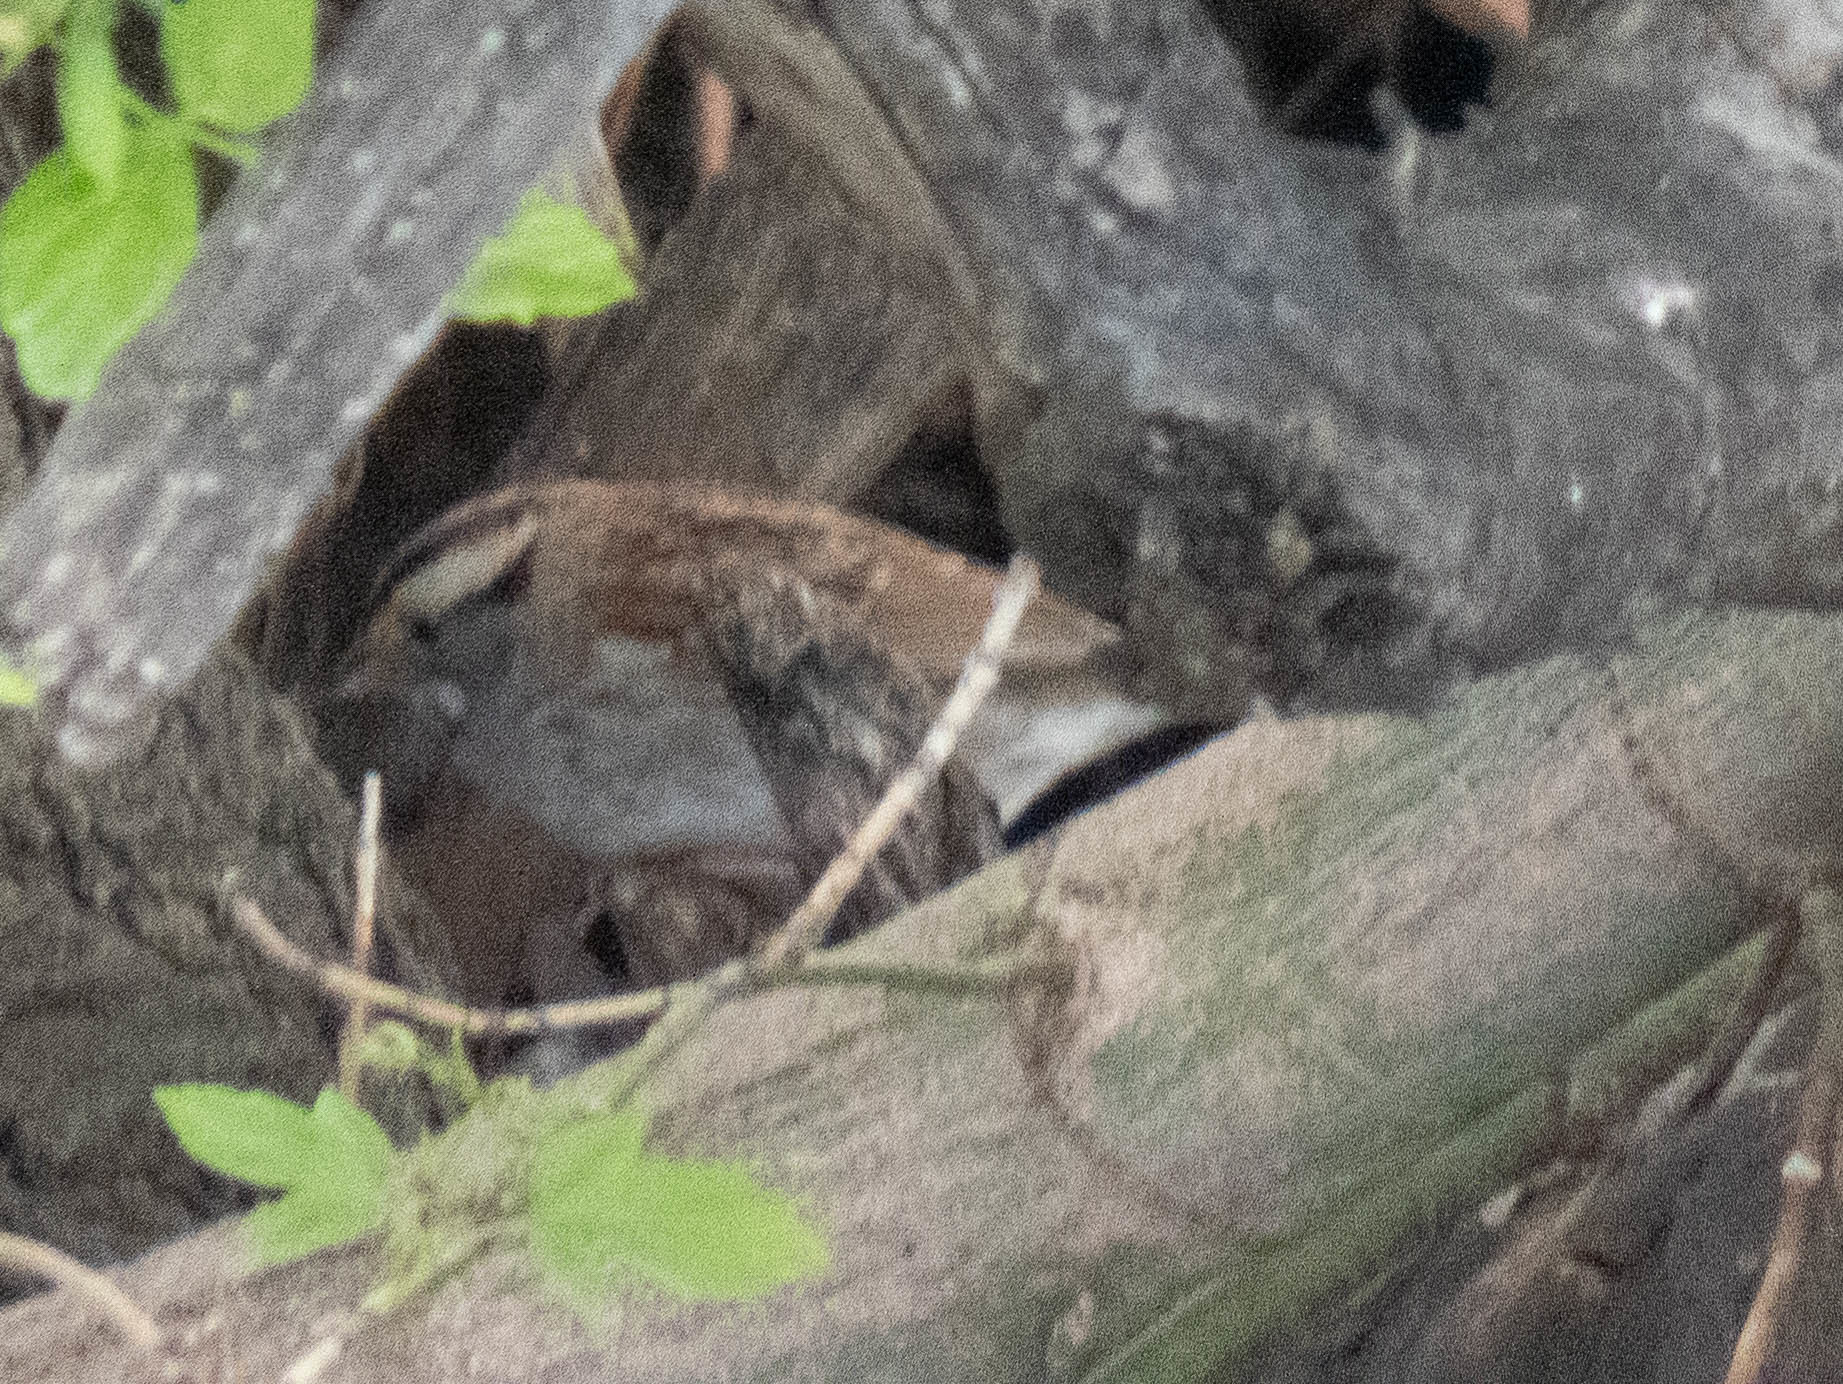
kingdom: Animalia
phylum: Chordata
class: Aves
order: Passeriformes
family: Passerellidae
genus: Zonotrichia
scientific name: Zonotrichia albicollis
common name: White-throated sparrow
